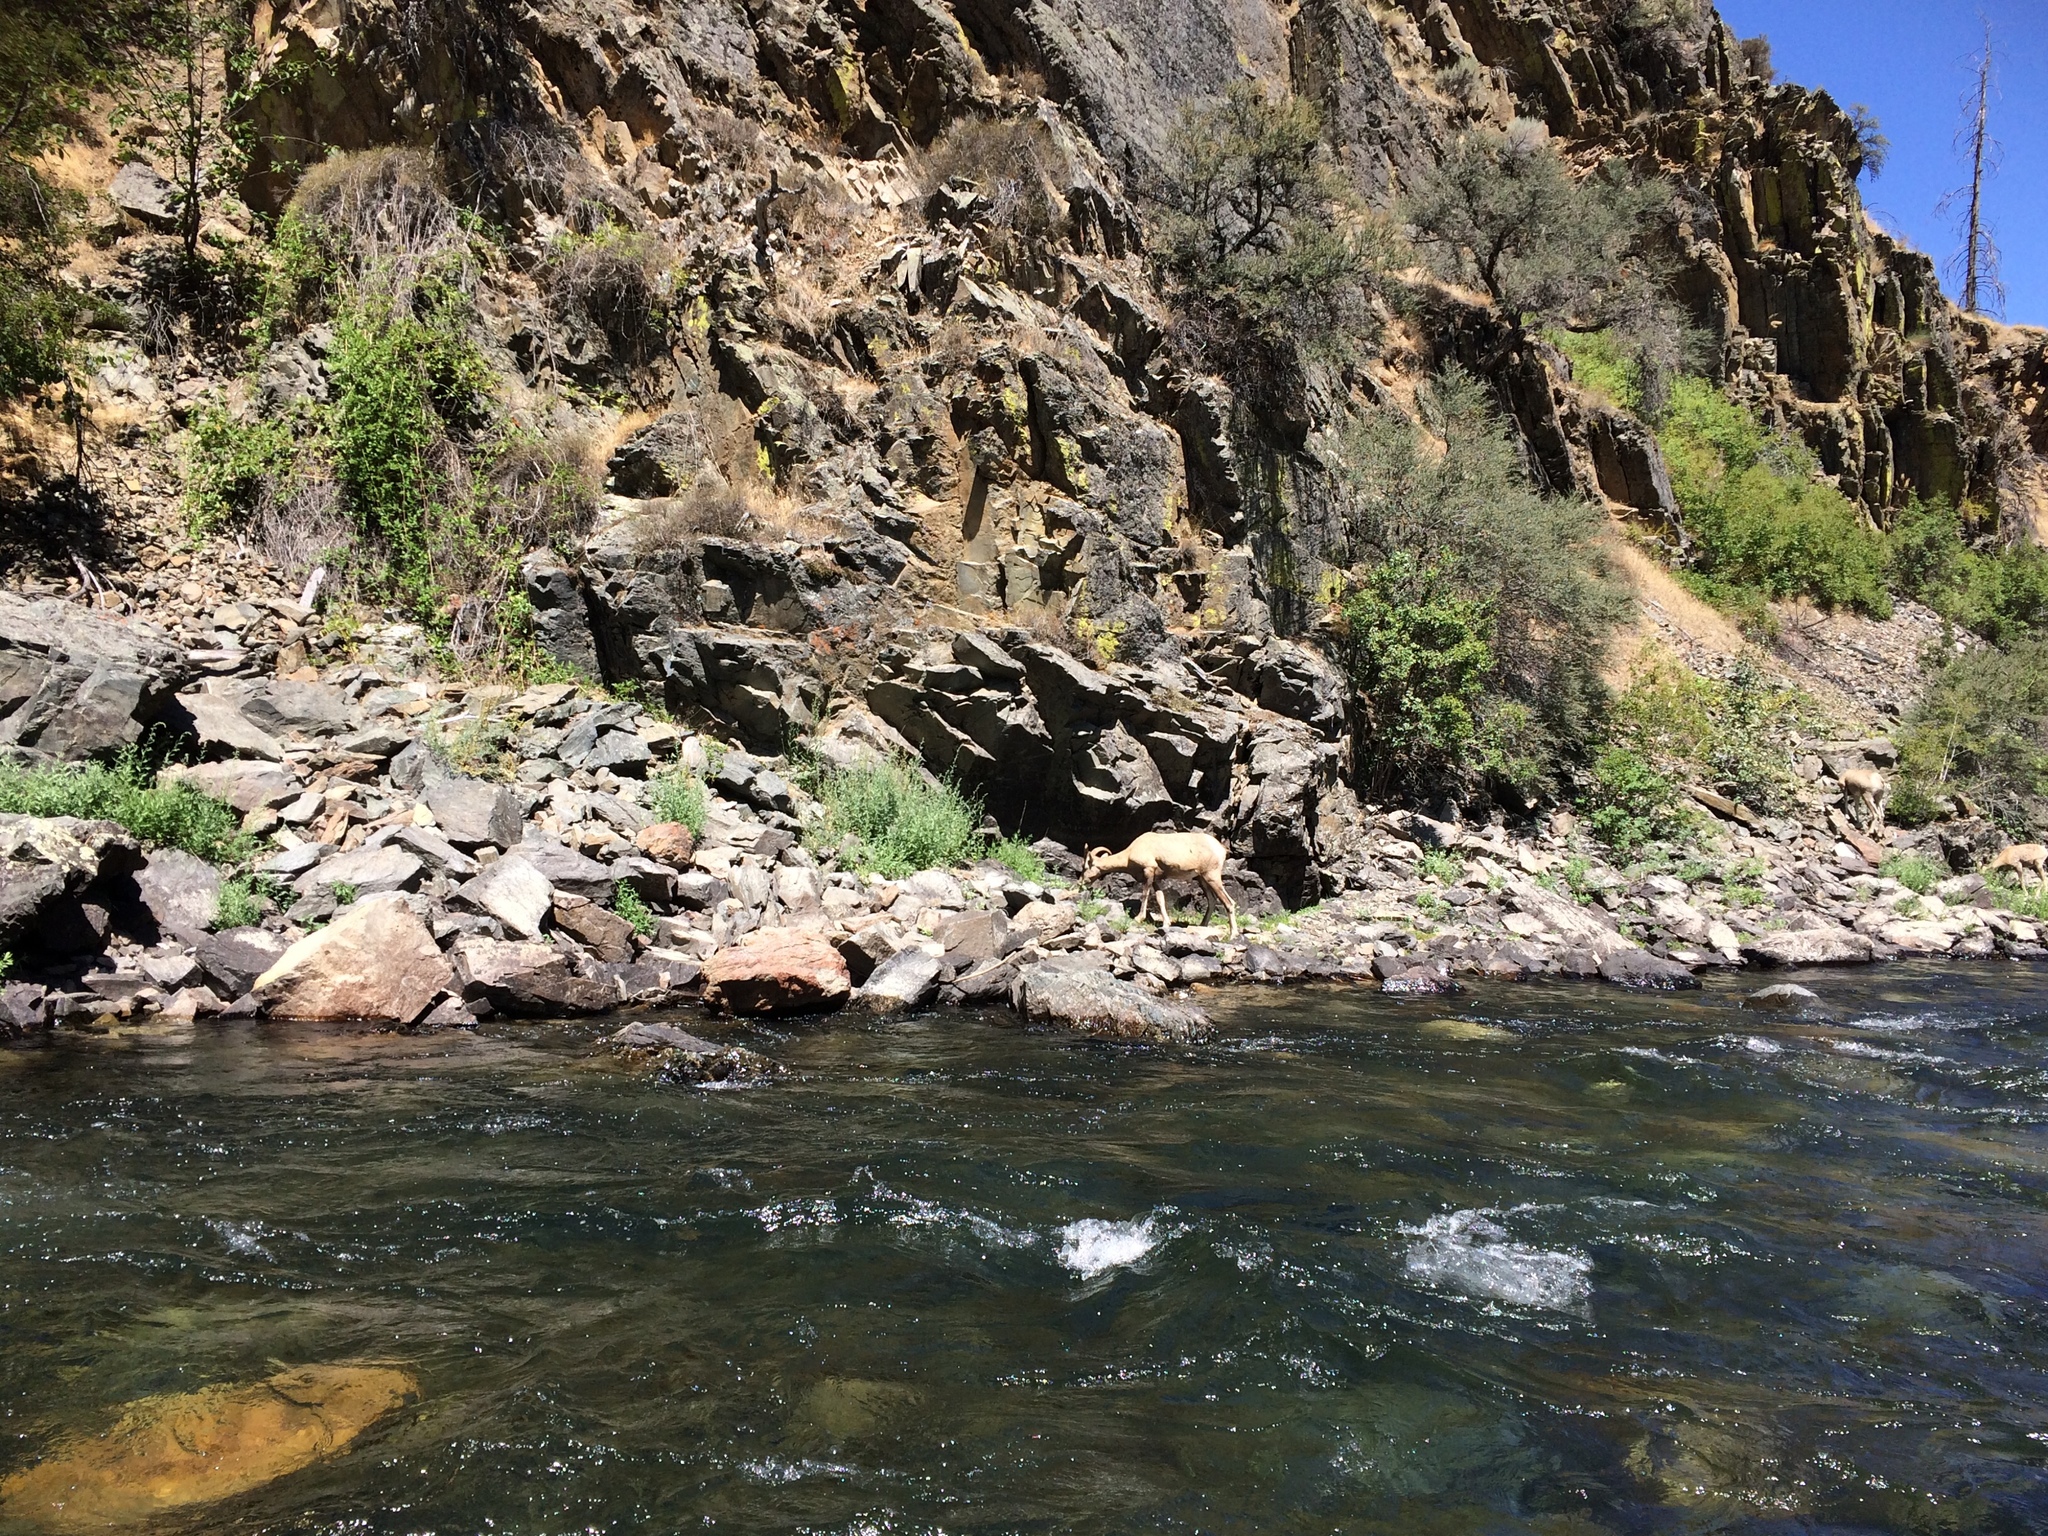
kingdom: Animalia
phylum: Chordata
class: Mammalia
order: Artiodactyla
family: Bovidae
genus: Ovis
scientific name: Ovis canadensis
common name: Bighorn sheep
